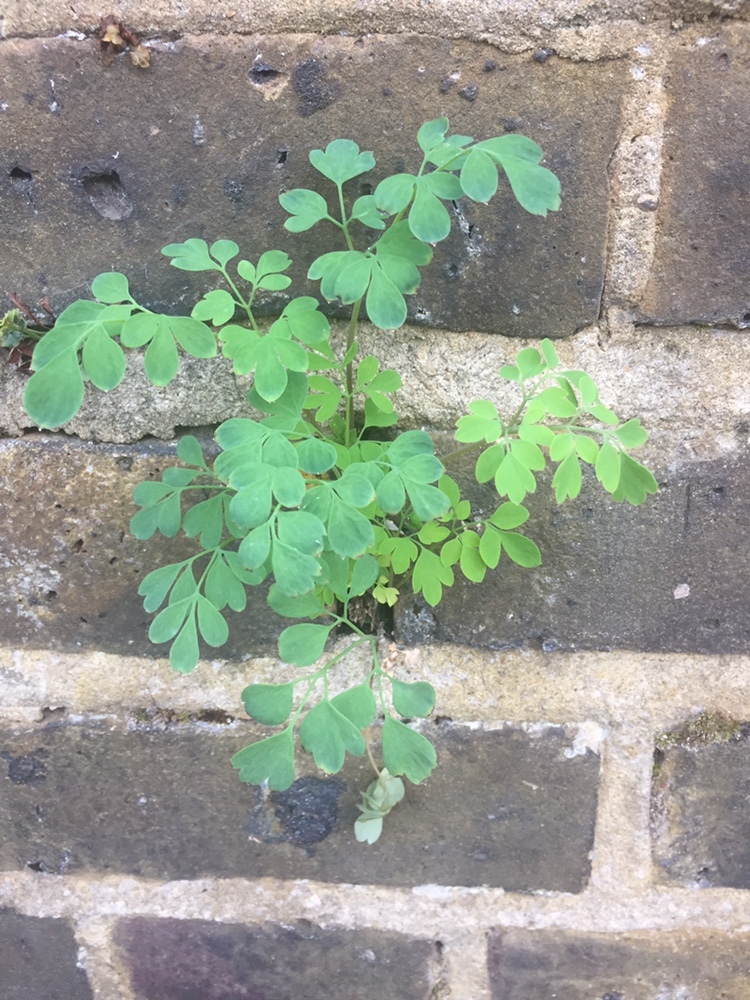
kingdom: Plantae
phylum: Tracheophyta
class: Magnoliopsida
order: Ranunculales
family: Papaveraceae
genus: Pseudofumaria
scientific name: Pseudofumaria lutea
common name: Yellow corydalis
